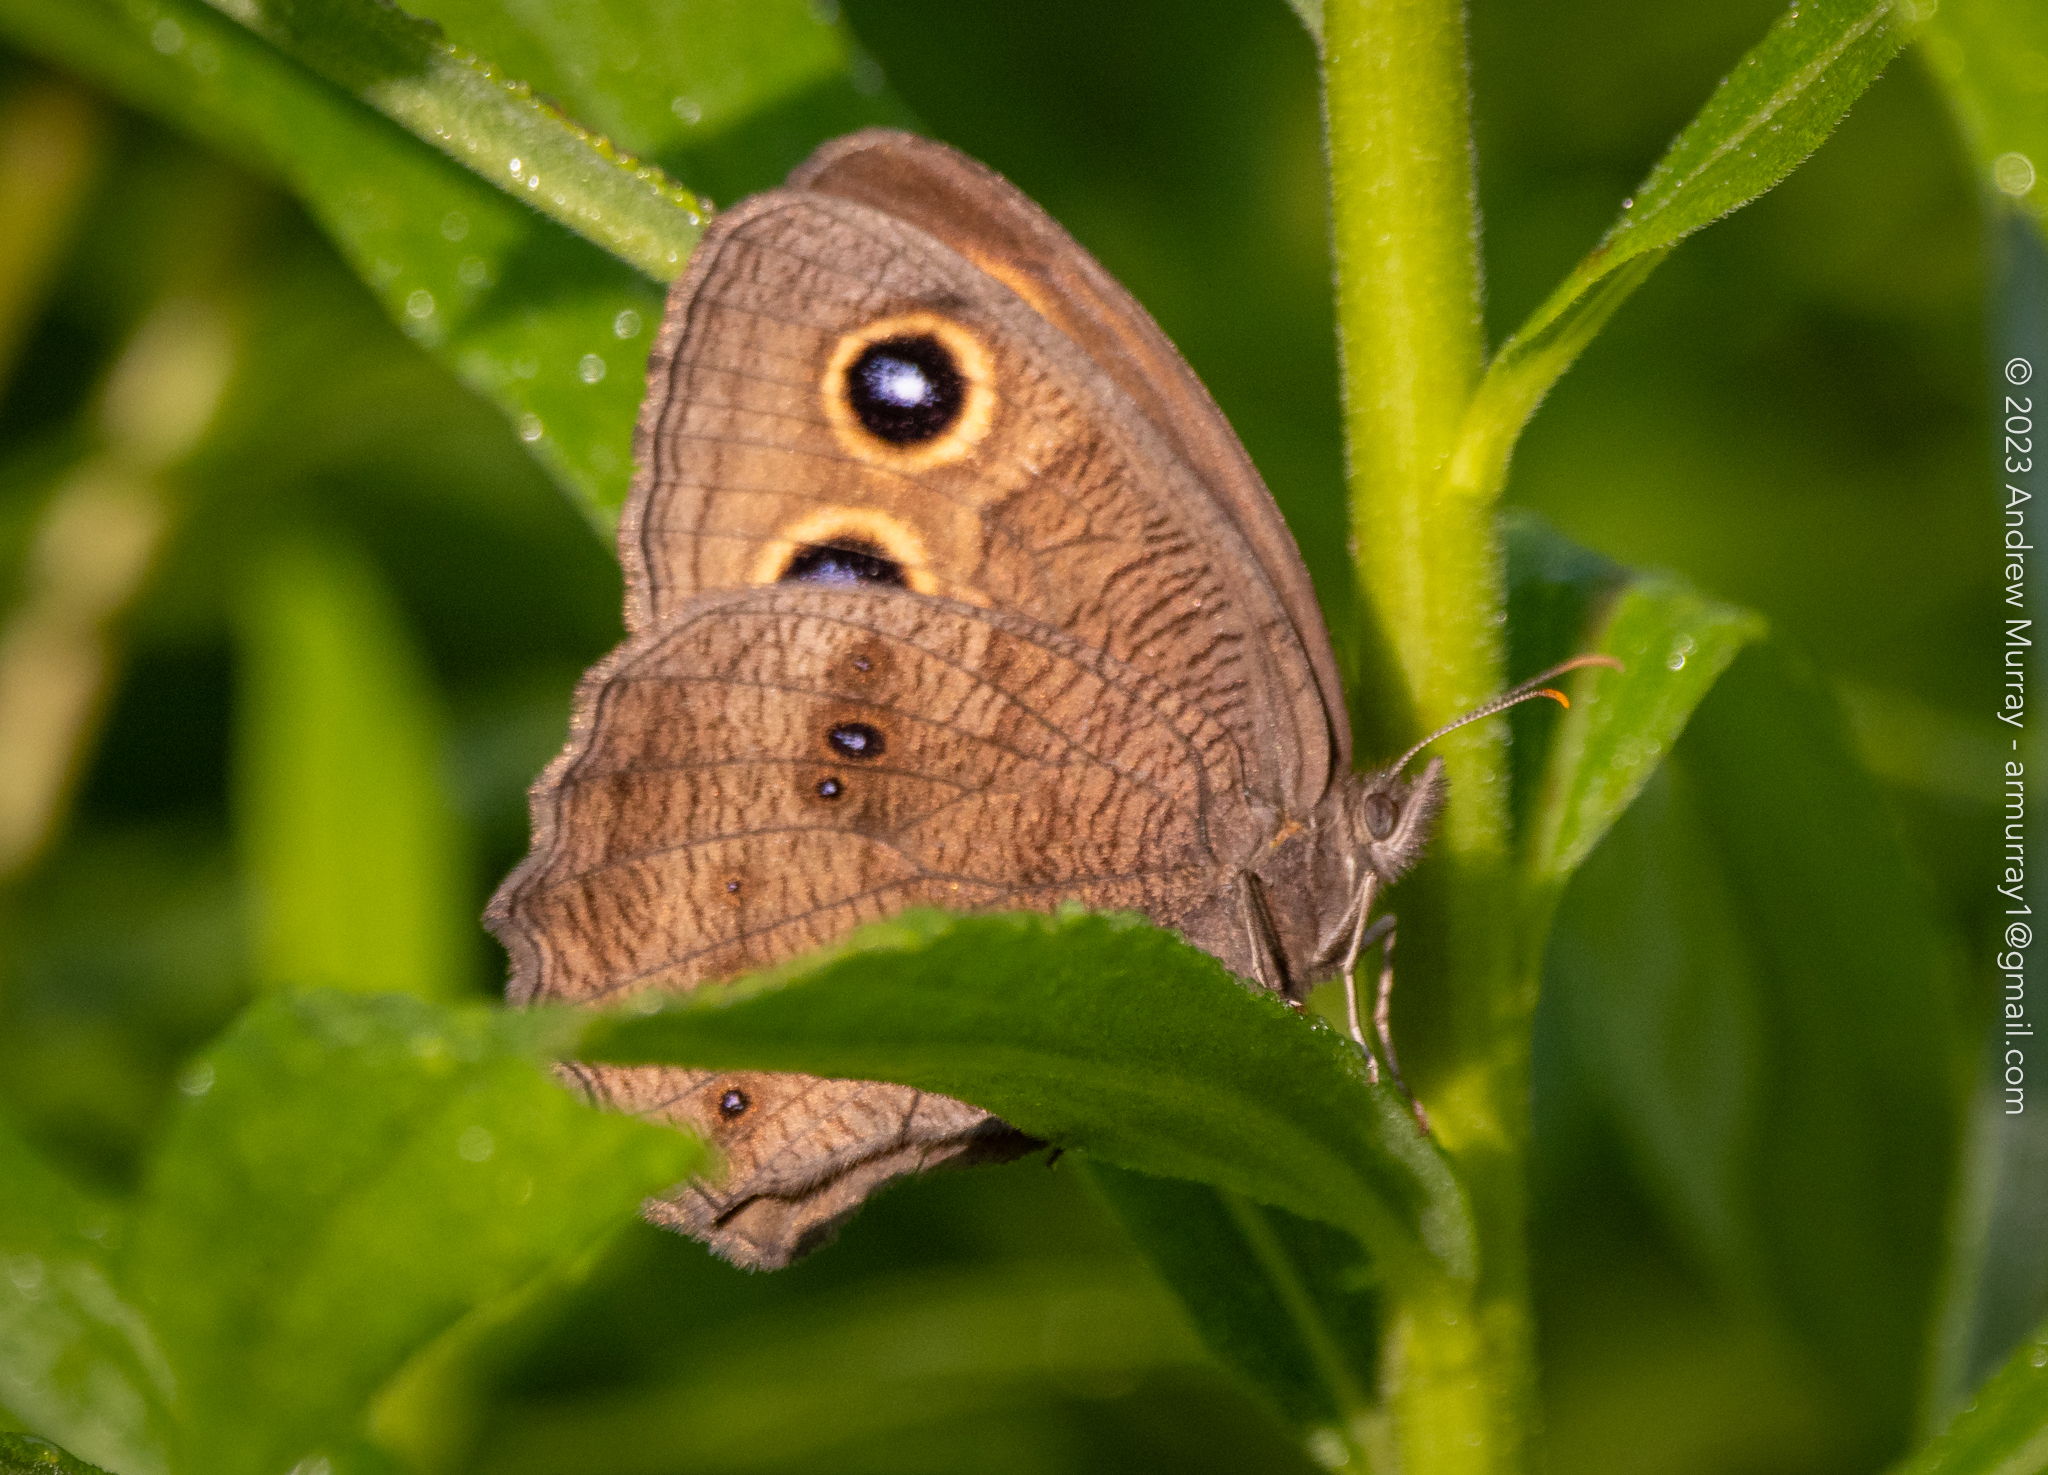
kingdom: Animalia
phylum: Arthropoda
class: Insecta
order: Lepidoptera
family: Nymphalidae
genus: Cercyonis
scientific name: Cercyonis pegala
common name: Common wood-nymph
